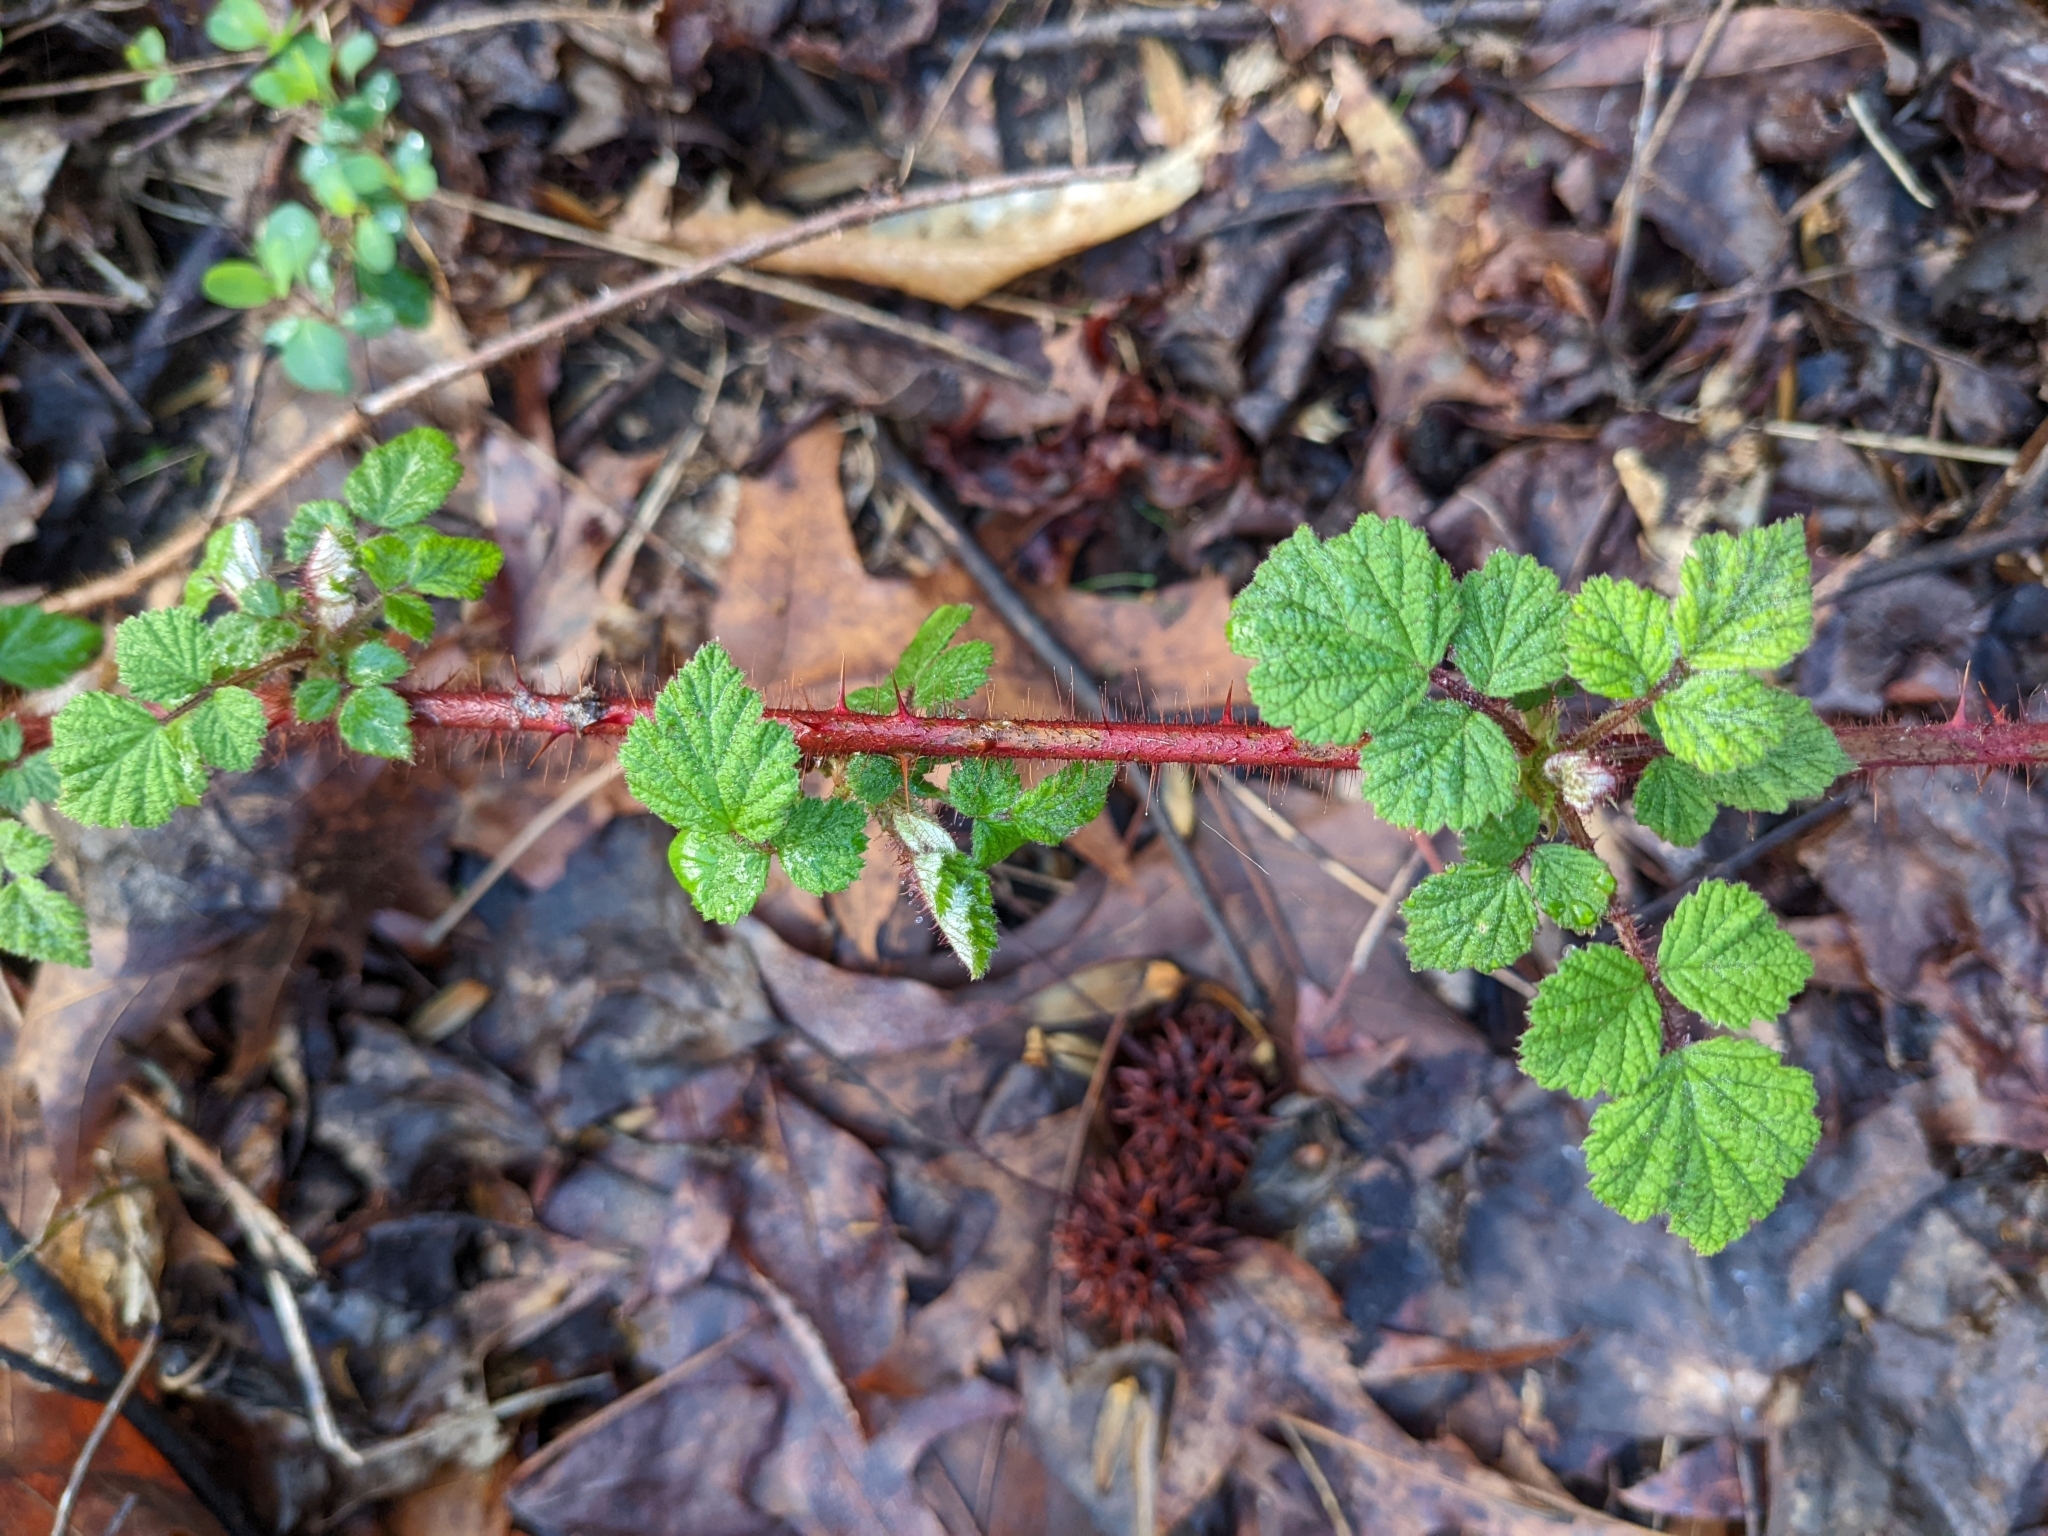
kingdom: Plantae
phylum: Tracheophyta
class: Magnoliopsida
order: Rosales
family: Rosaceae
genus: Rubus
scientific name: Rubus phoenicolasius
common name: Japanese wineberry
